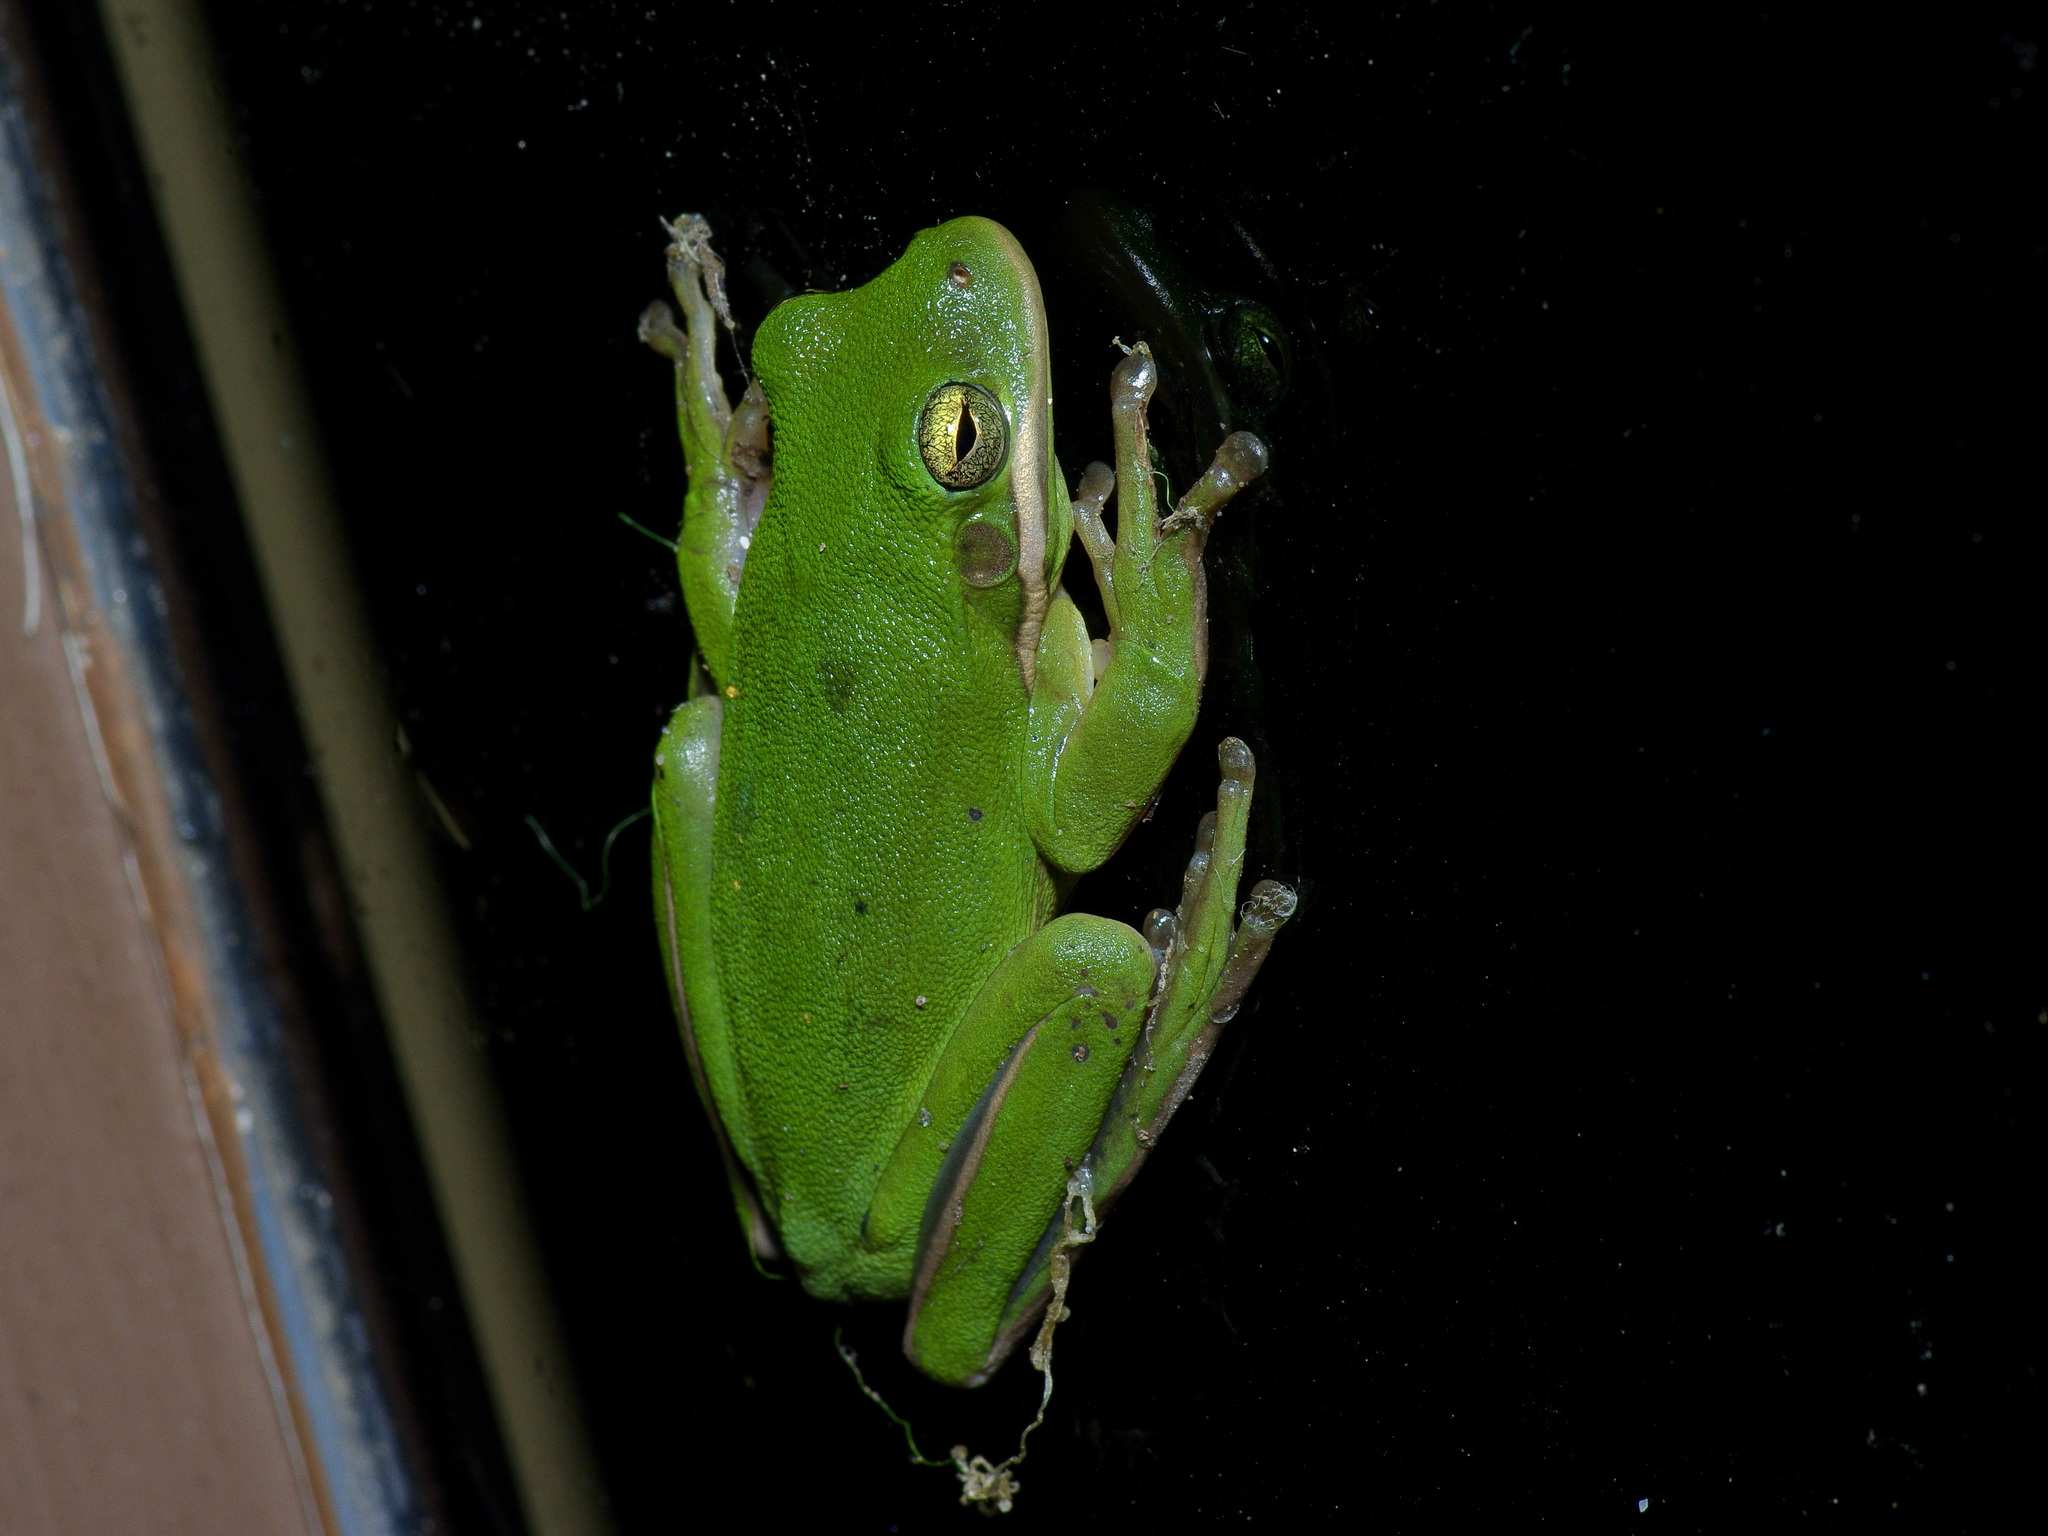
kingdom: Animalia
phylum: Chordata
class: Amphibia
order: Anura
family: Hylidae
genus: Dryophytes
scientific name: Dryophytes cinereus
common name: Green treefrog
